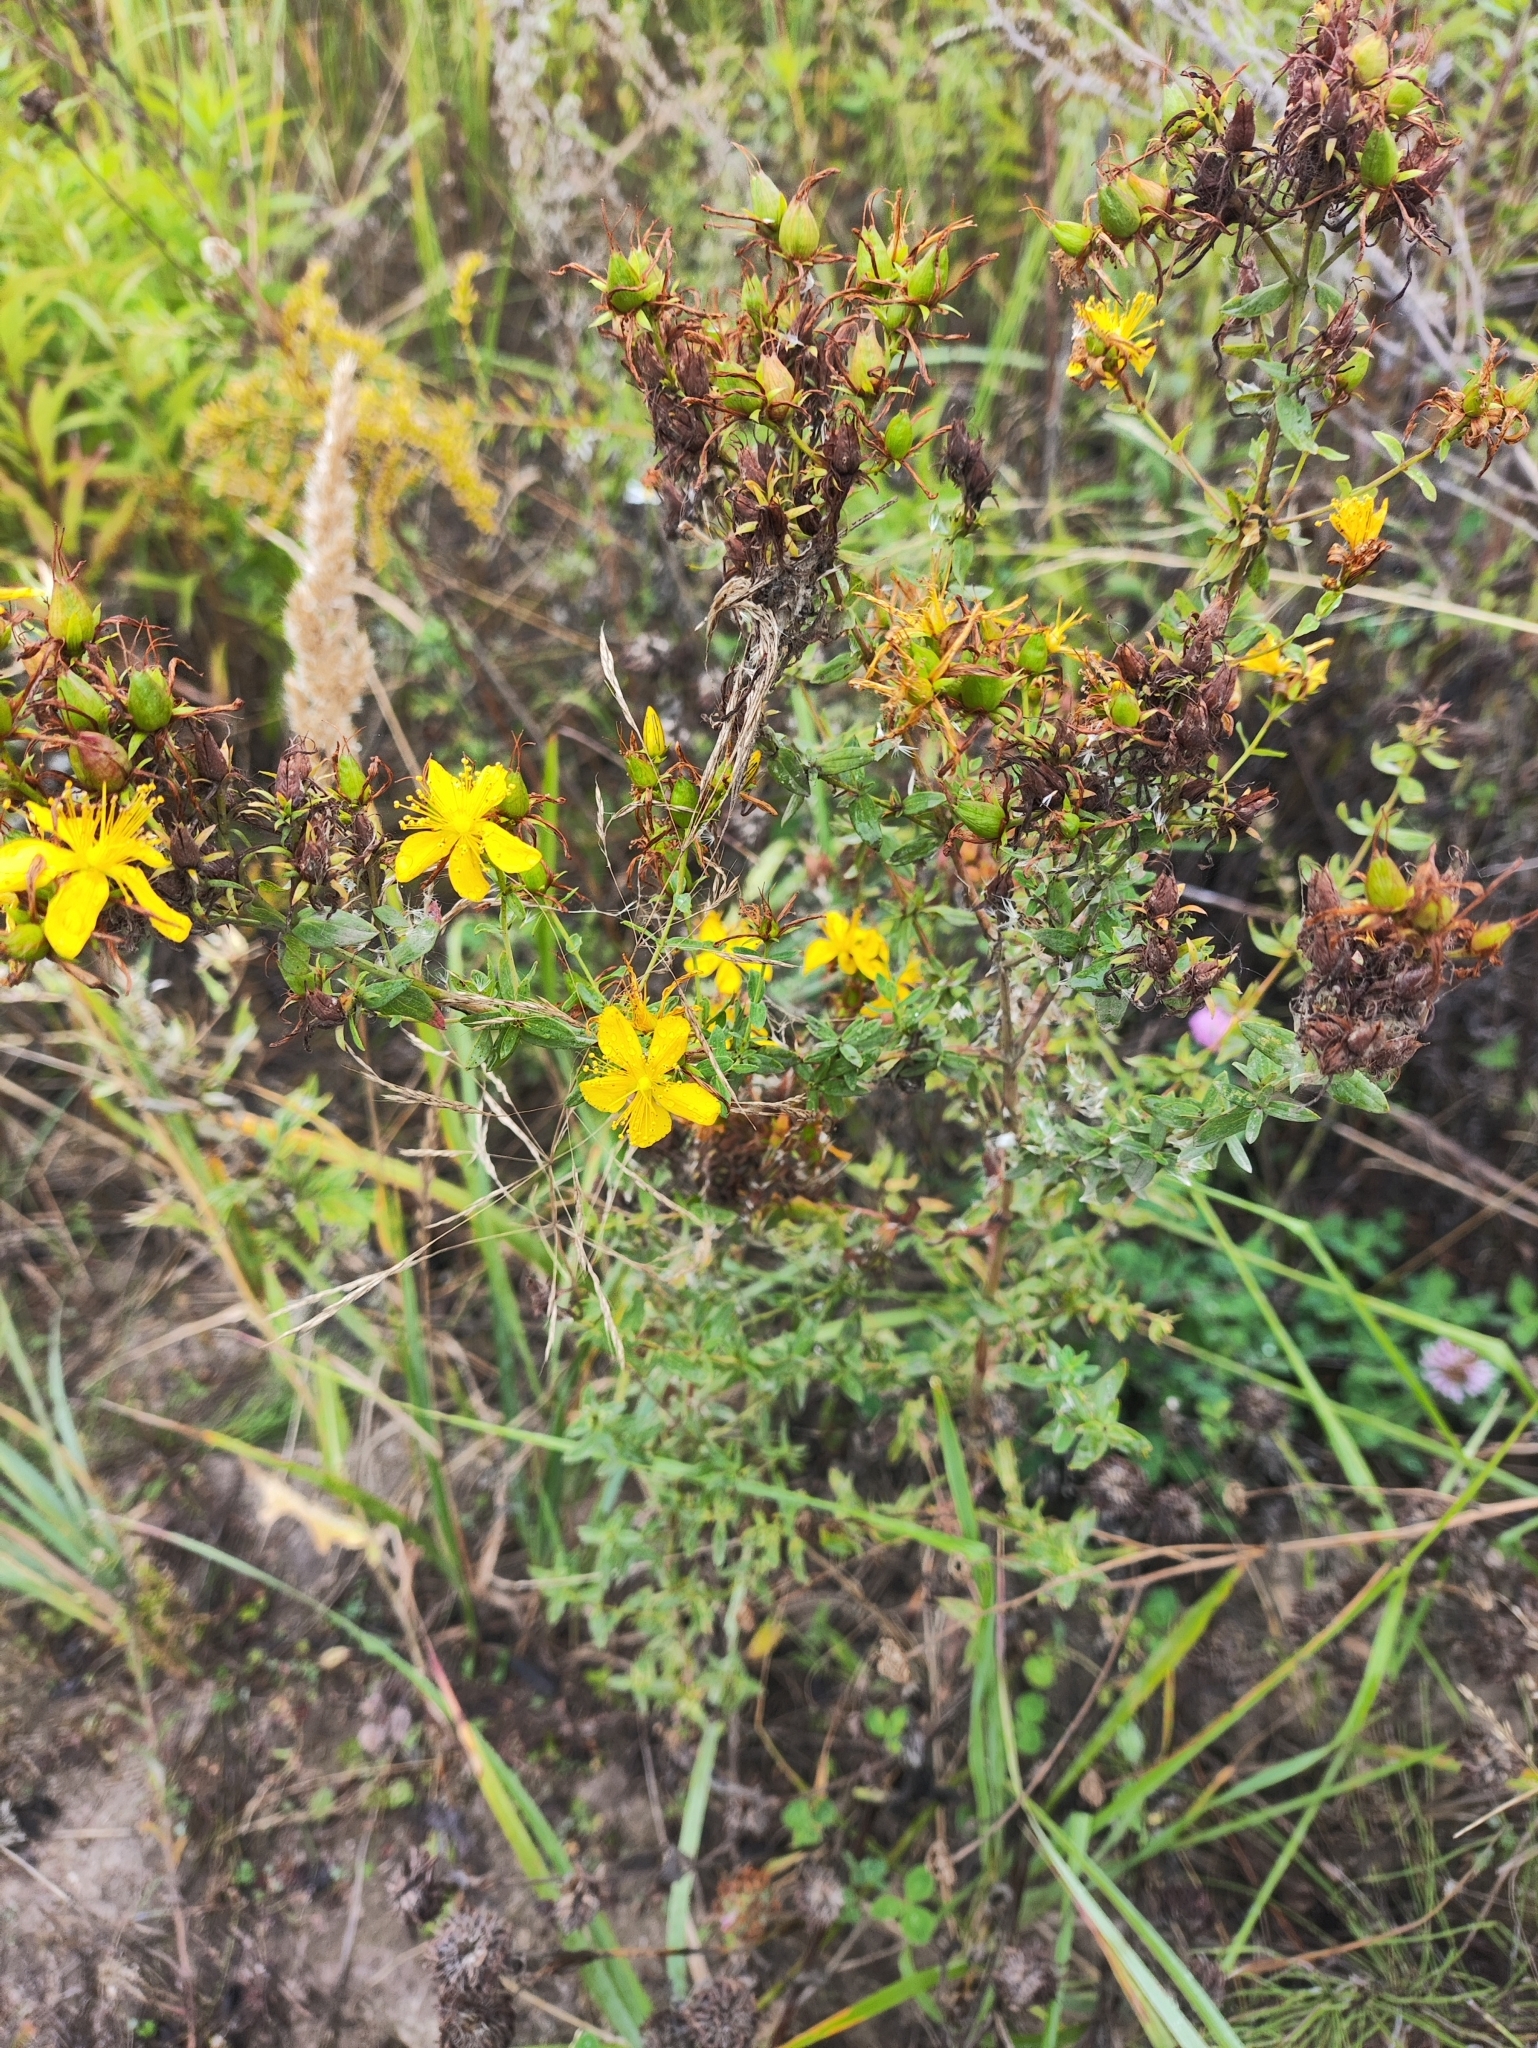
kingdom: Plantae
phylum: Tracheophyta
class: Magnoliopsida
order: Malpighiales
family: Hypericaceae
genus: Hypericum
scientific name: Hypericum perforatum
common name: Common st. johnswort
